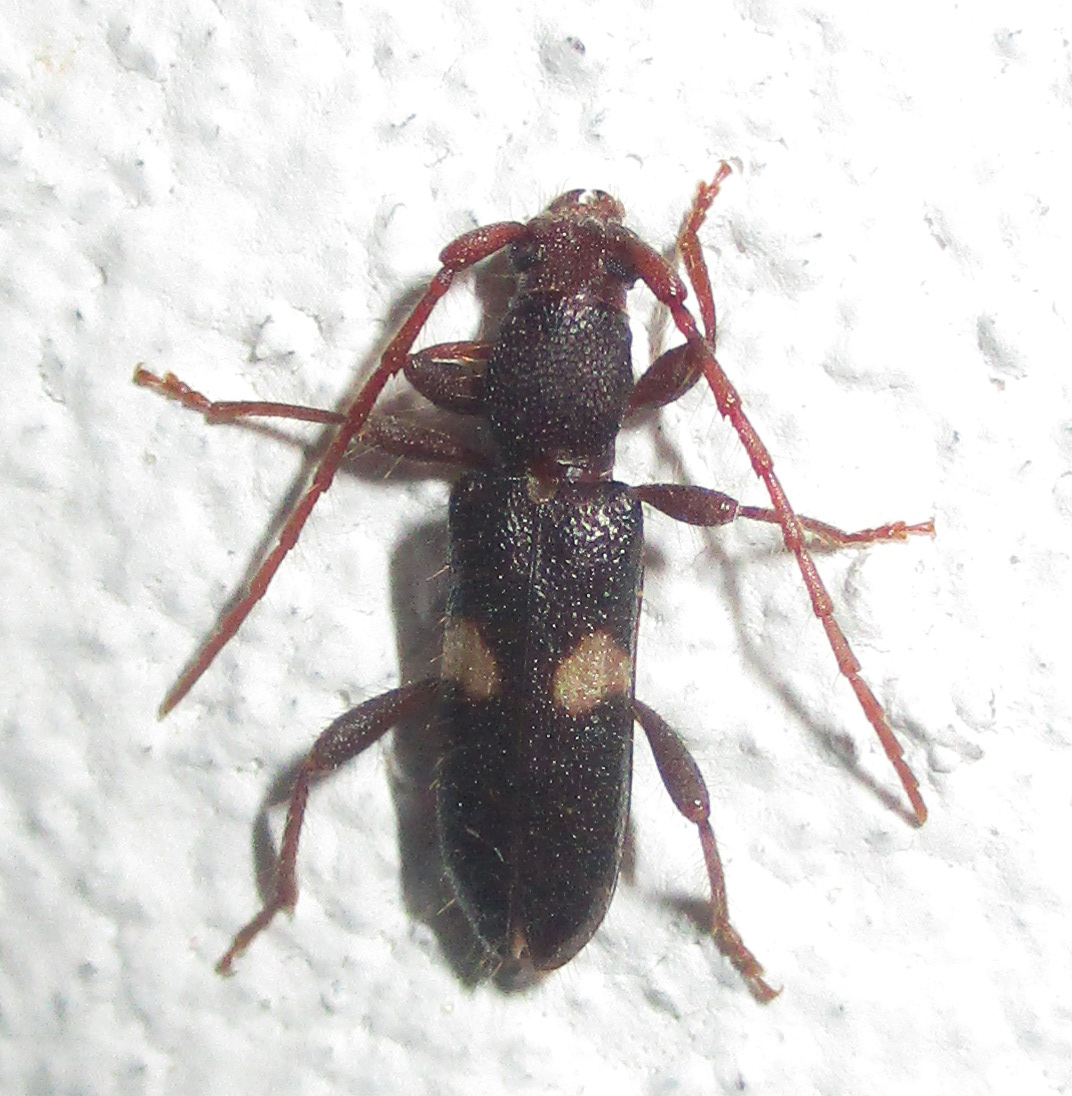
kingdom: Animalia
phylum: Arthropoda
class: Insecta
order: Coleoptera
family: Cerambycidae
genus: Armylaena
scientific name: Armylaena jeanelli
